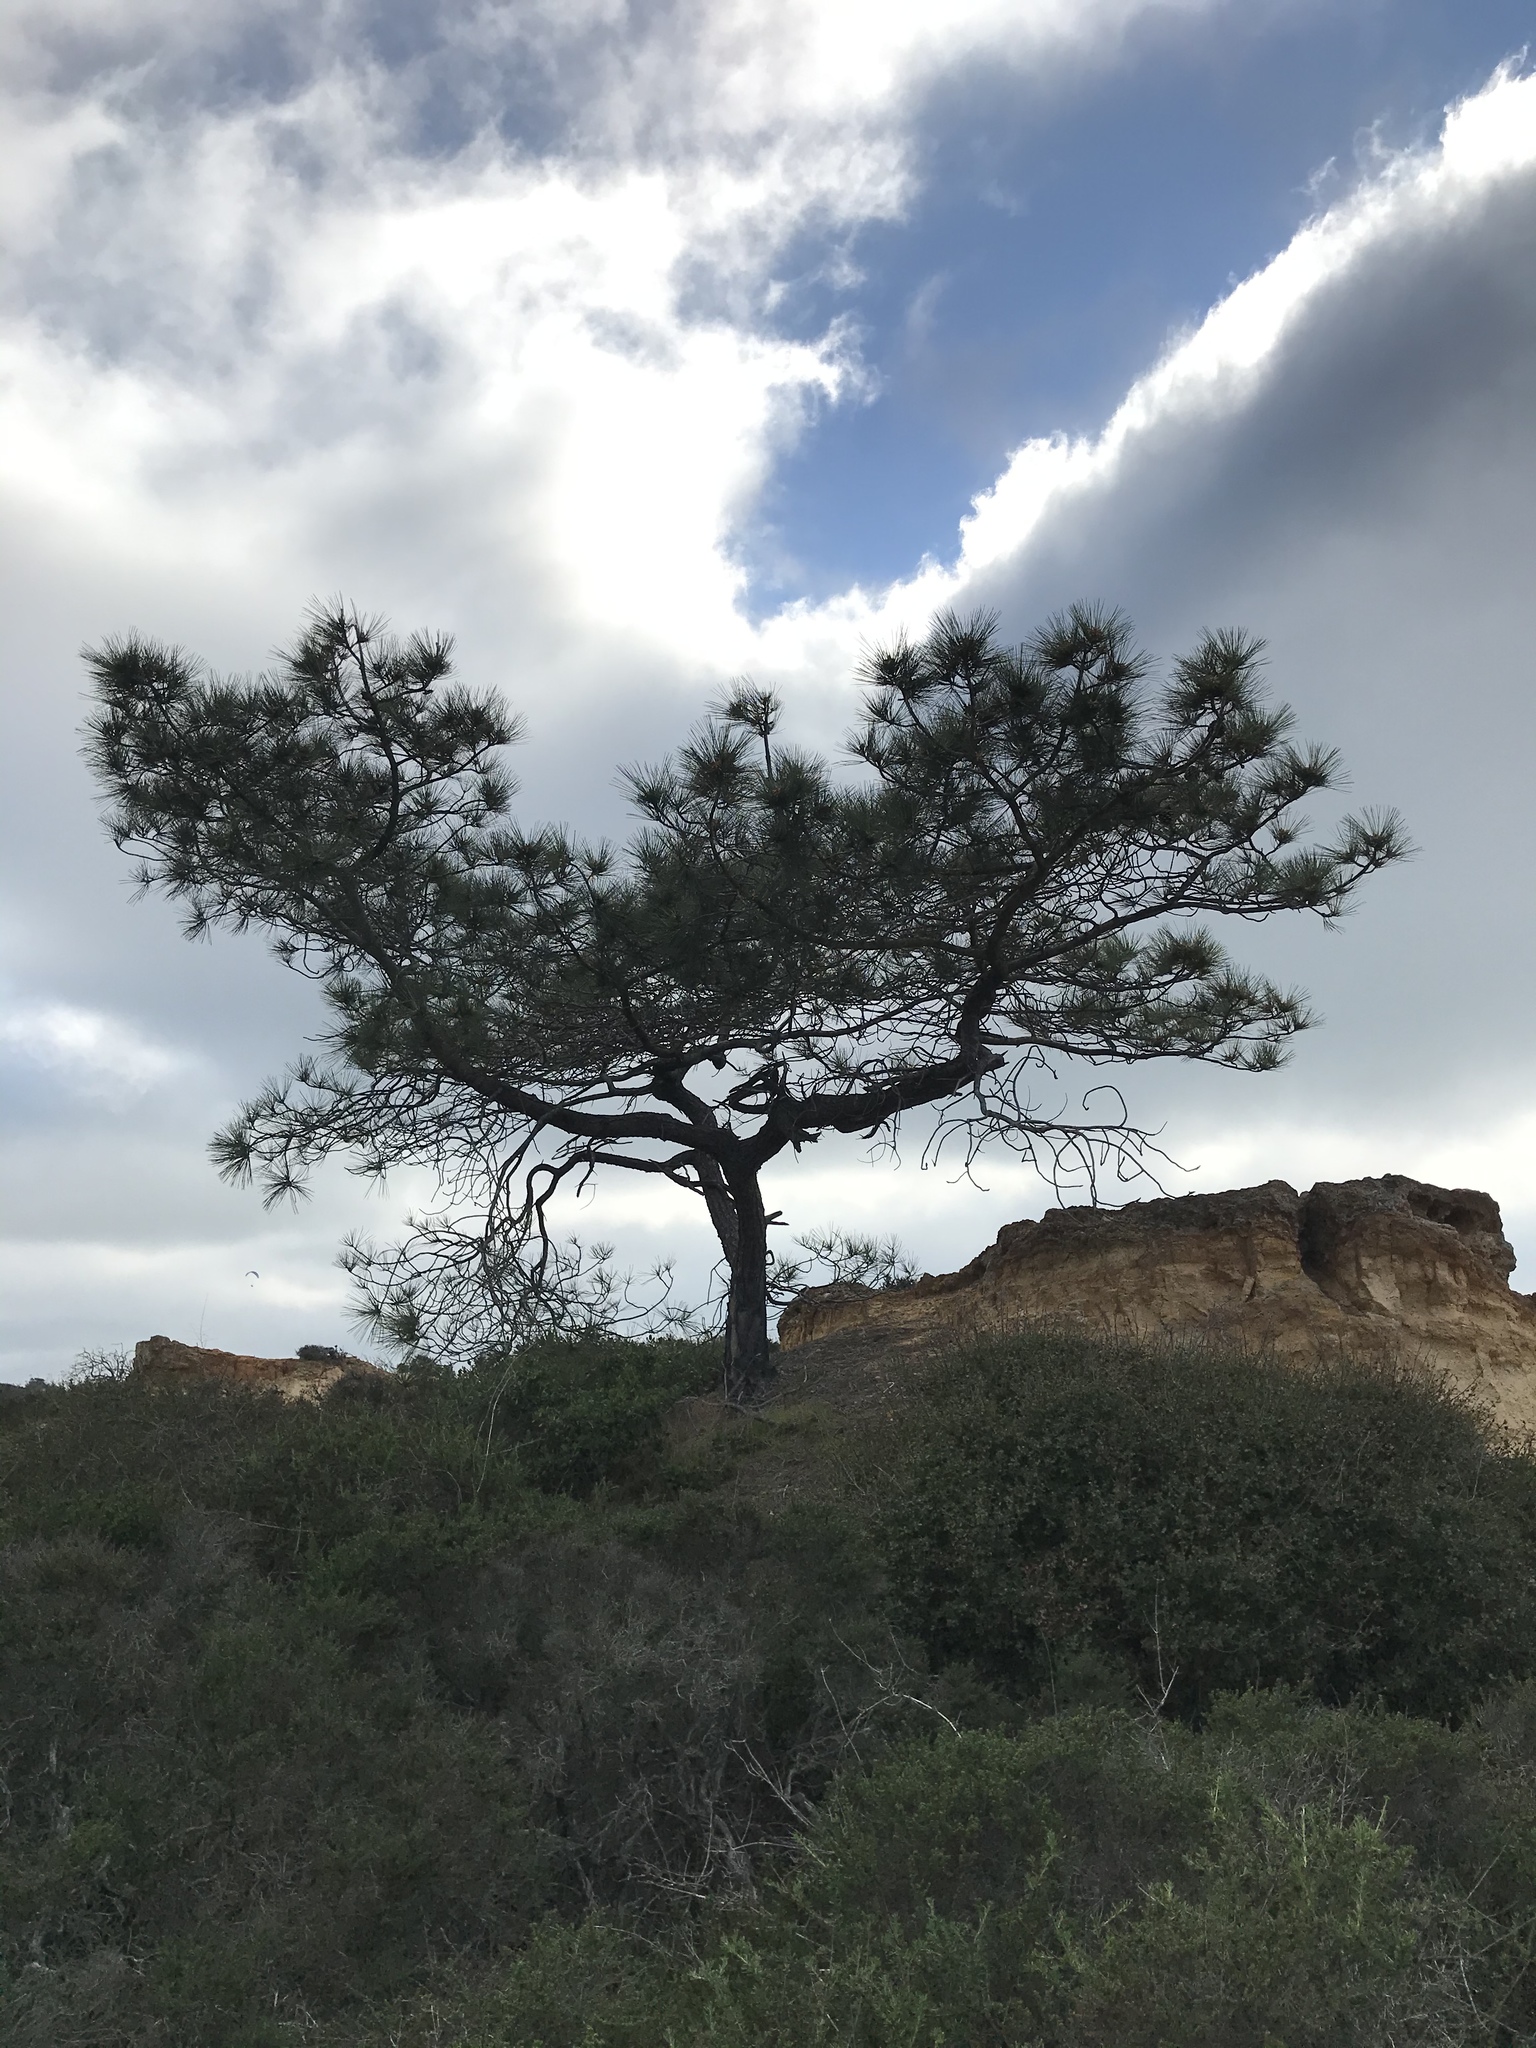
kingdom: Plantae
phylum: Tracheophyta
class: Pinopsida
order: Pinales
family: Pinaceae
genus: Pinus
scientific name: Pinus torreyana
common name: Torrey pine
